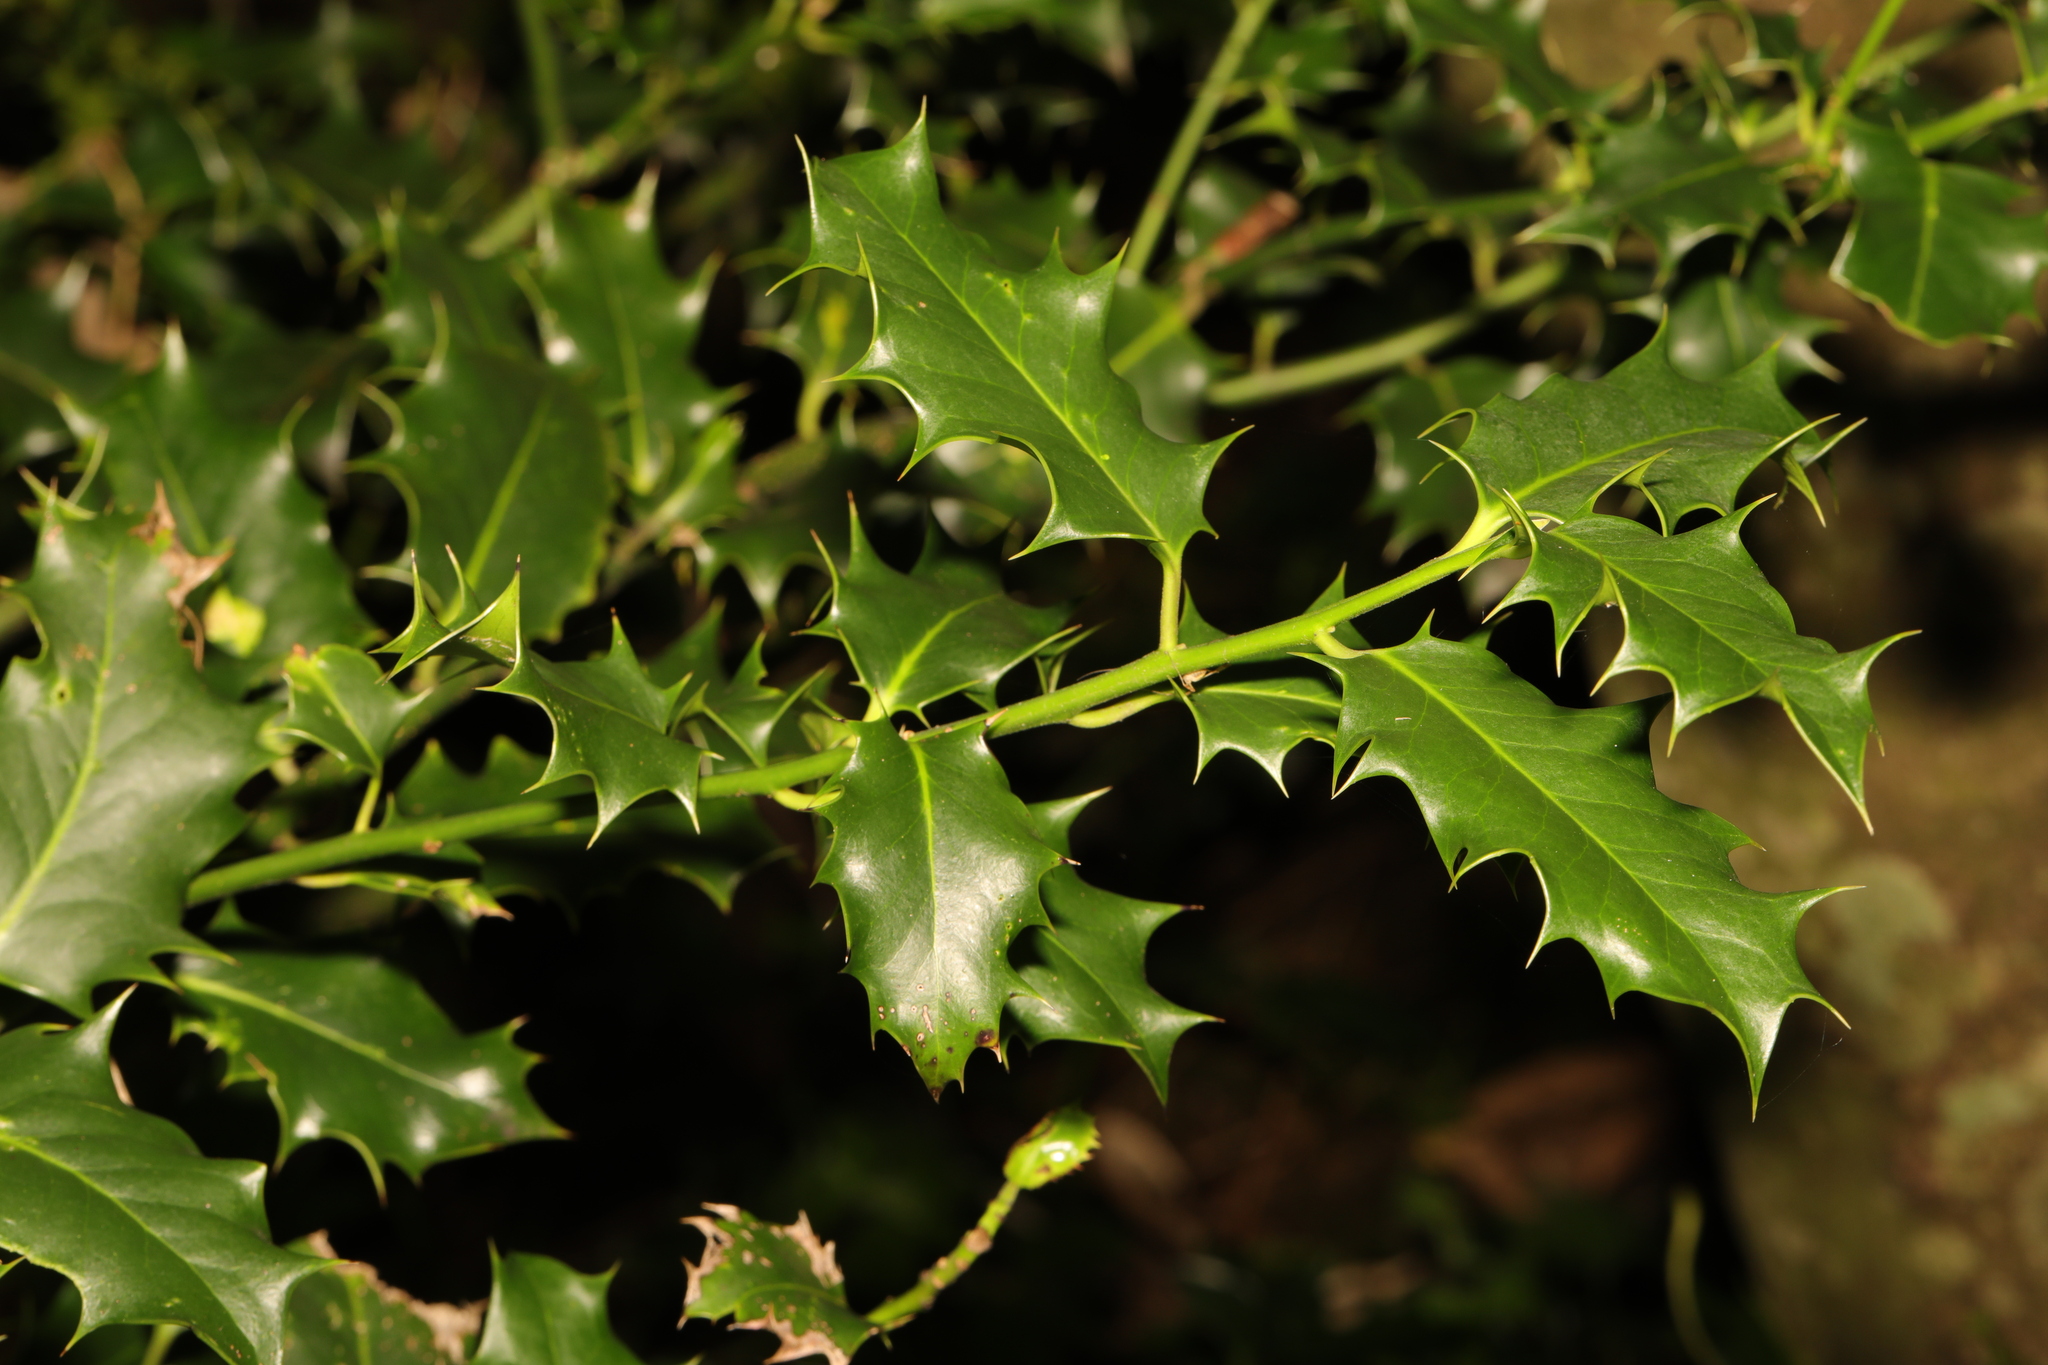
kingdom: Plantae
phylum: Tracheophyta
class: Magnoliopsida
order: Aquifoliales
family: Aquifoliaceae
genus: Ilex
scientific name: Ilex aquifolium
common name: English holly
